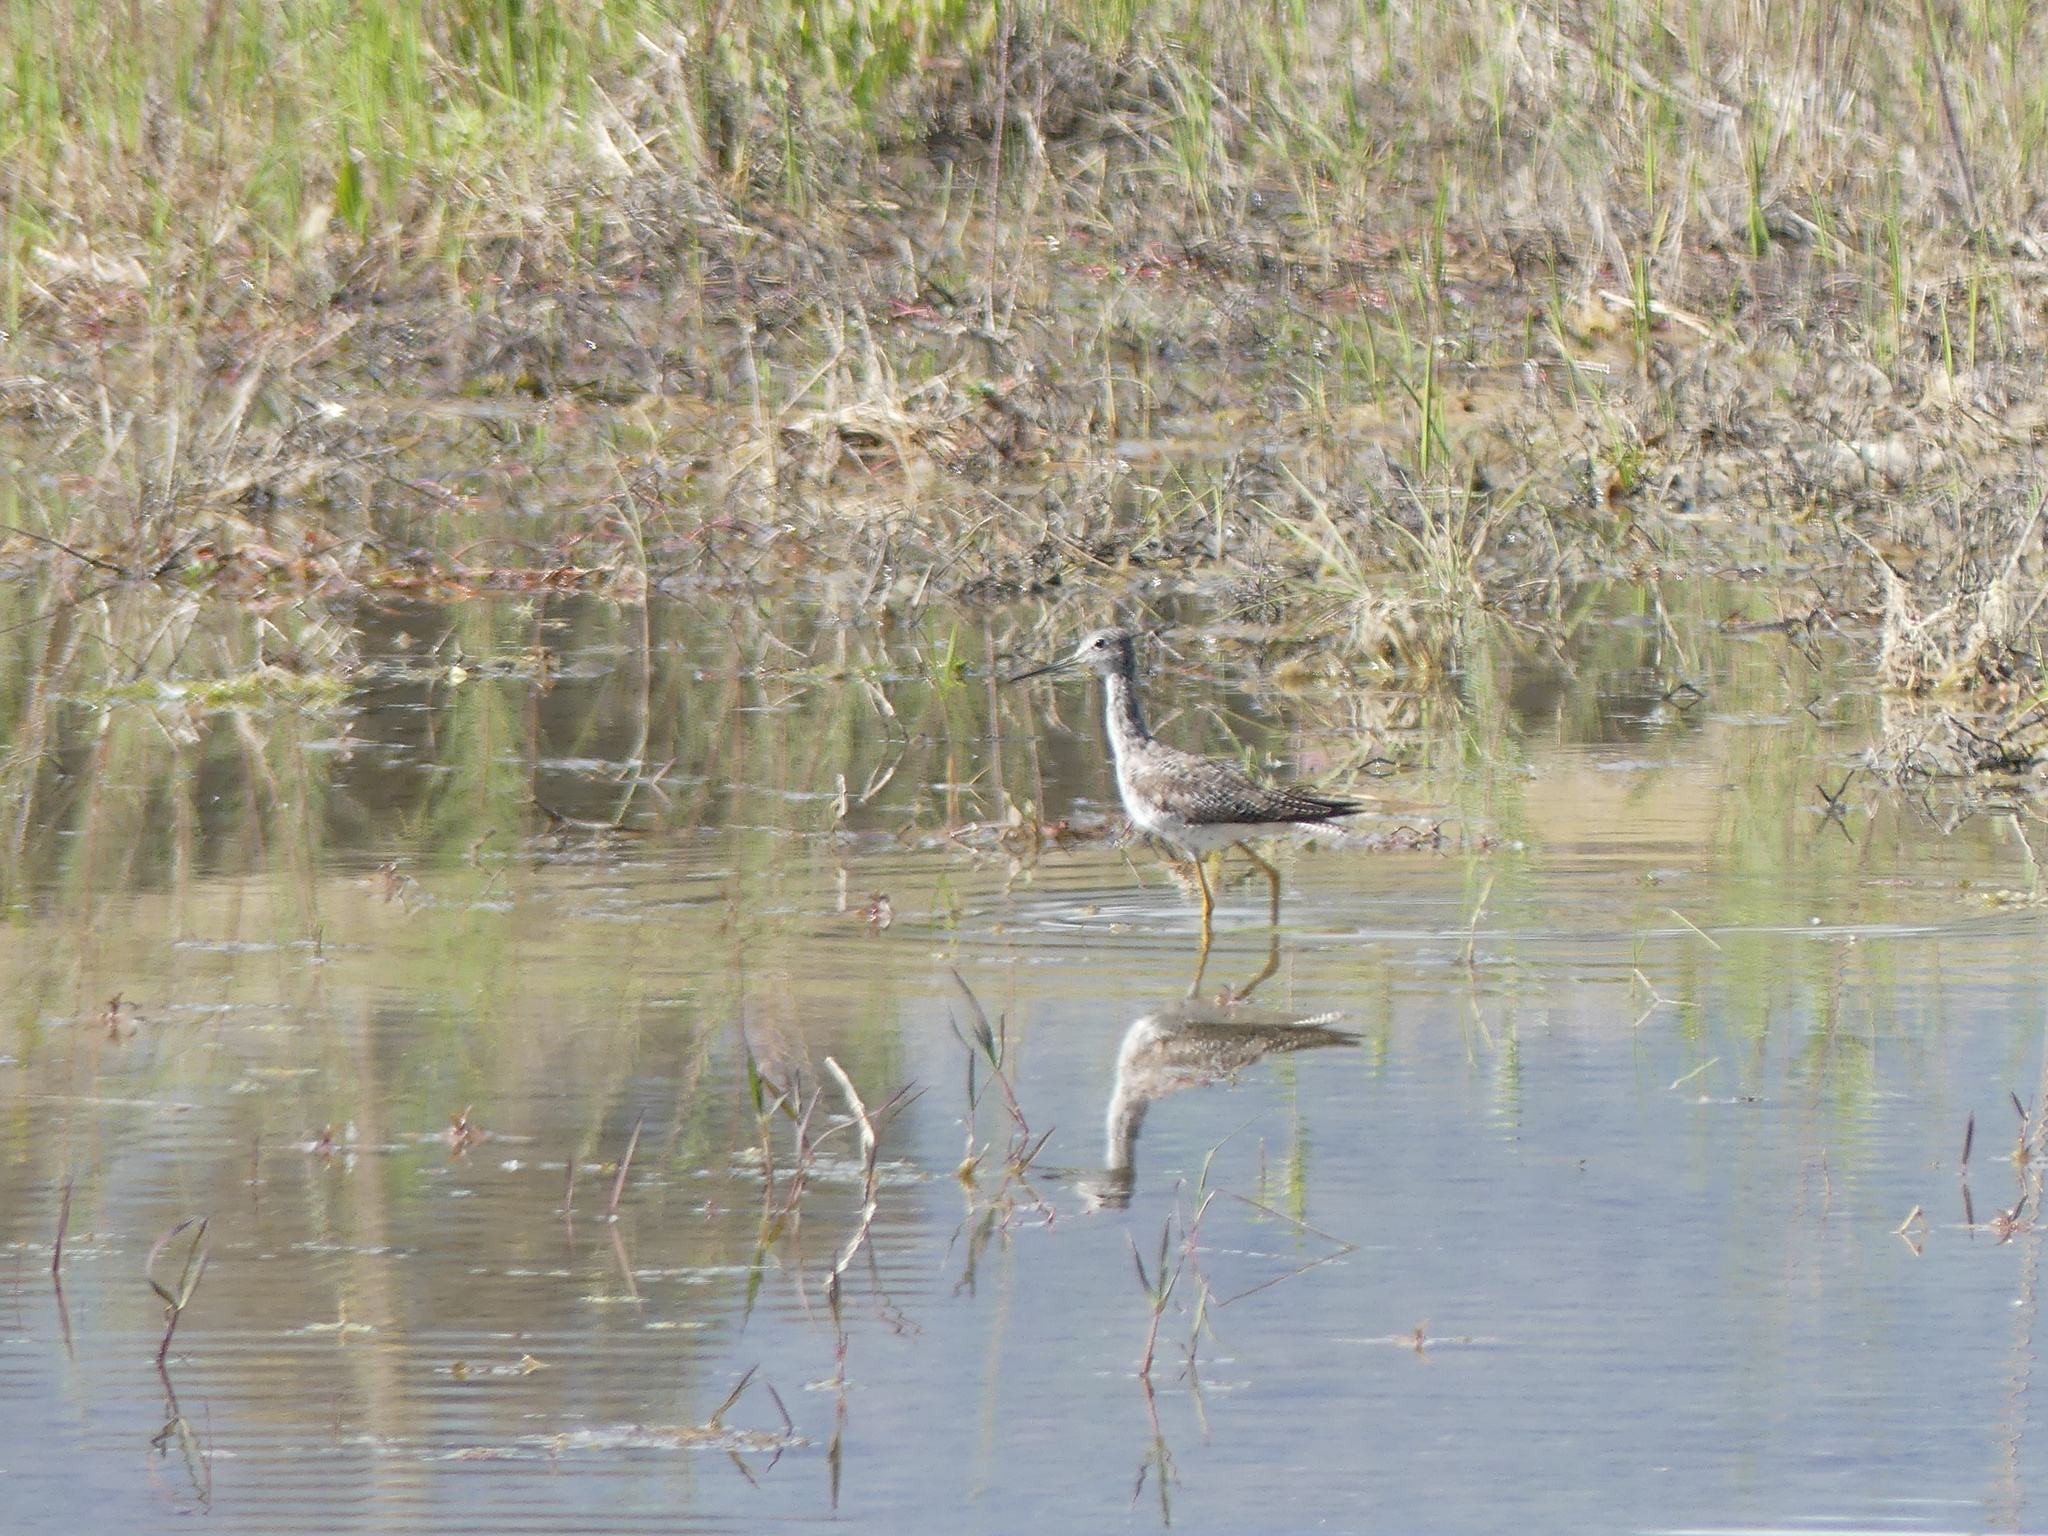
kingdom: Animalia
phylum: Chordata
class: Aves
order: Charadriiformes
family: Scolopacidae
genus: Tringa
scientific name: Tringa melanoleuca
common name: Greater yellowlegs
